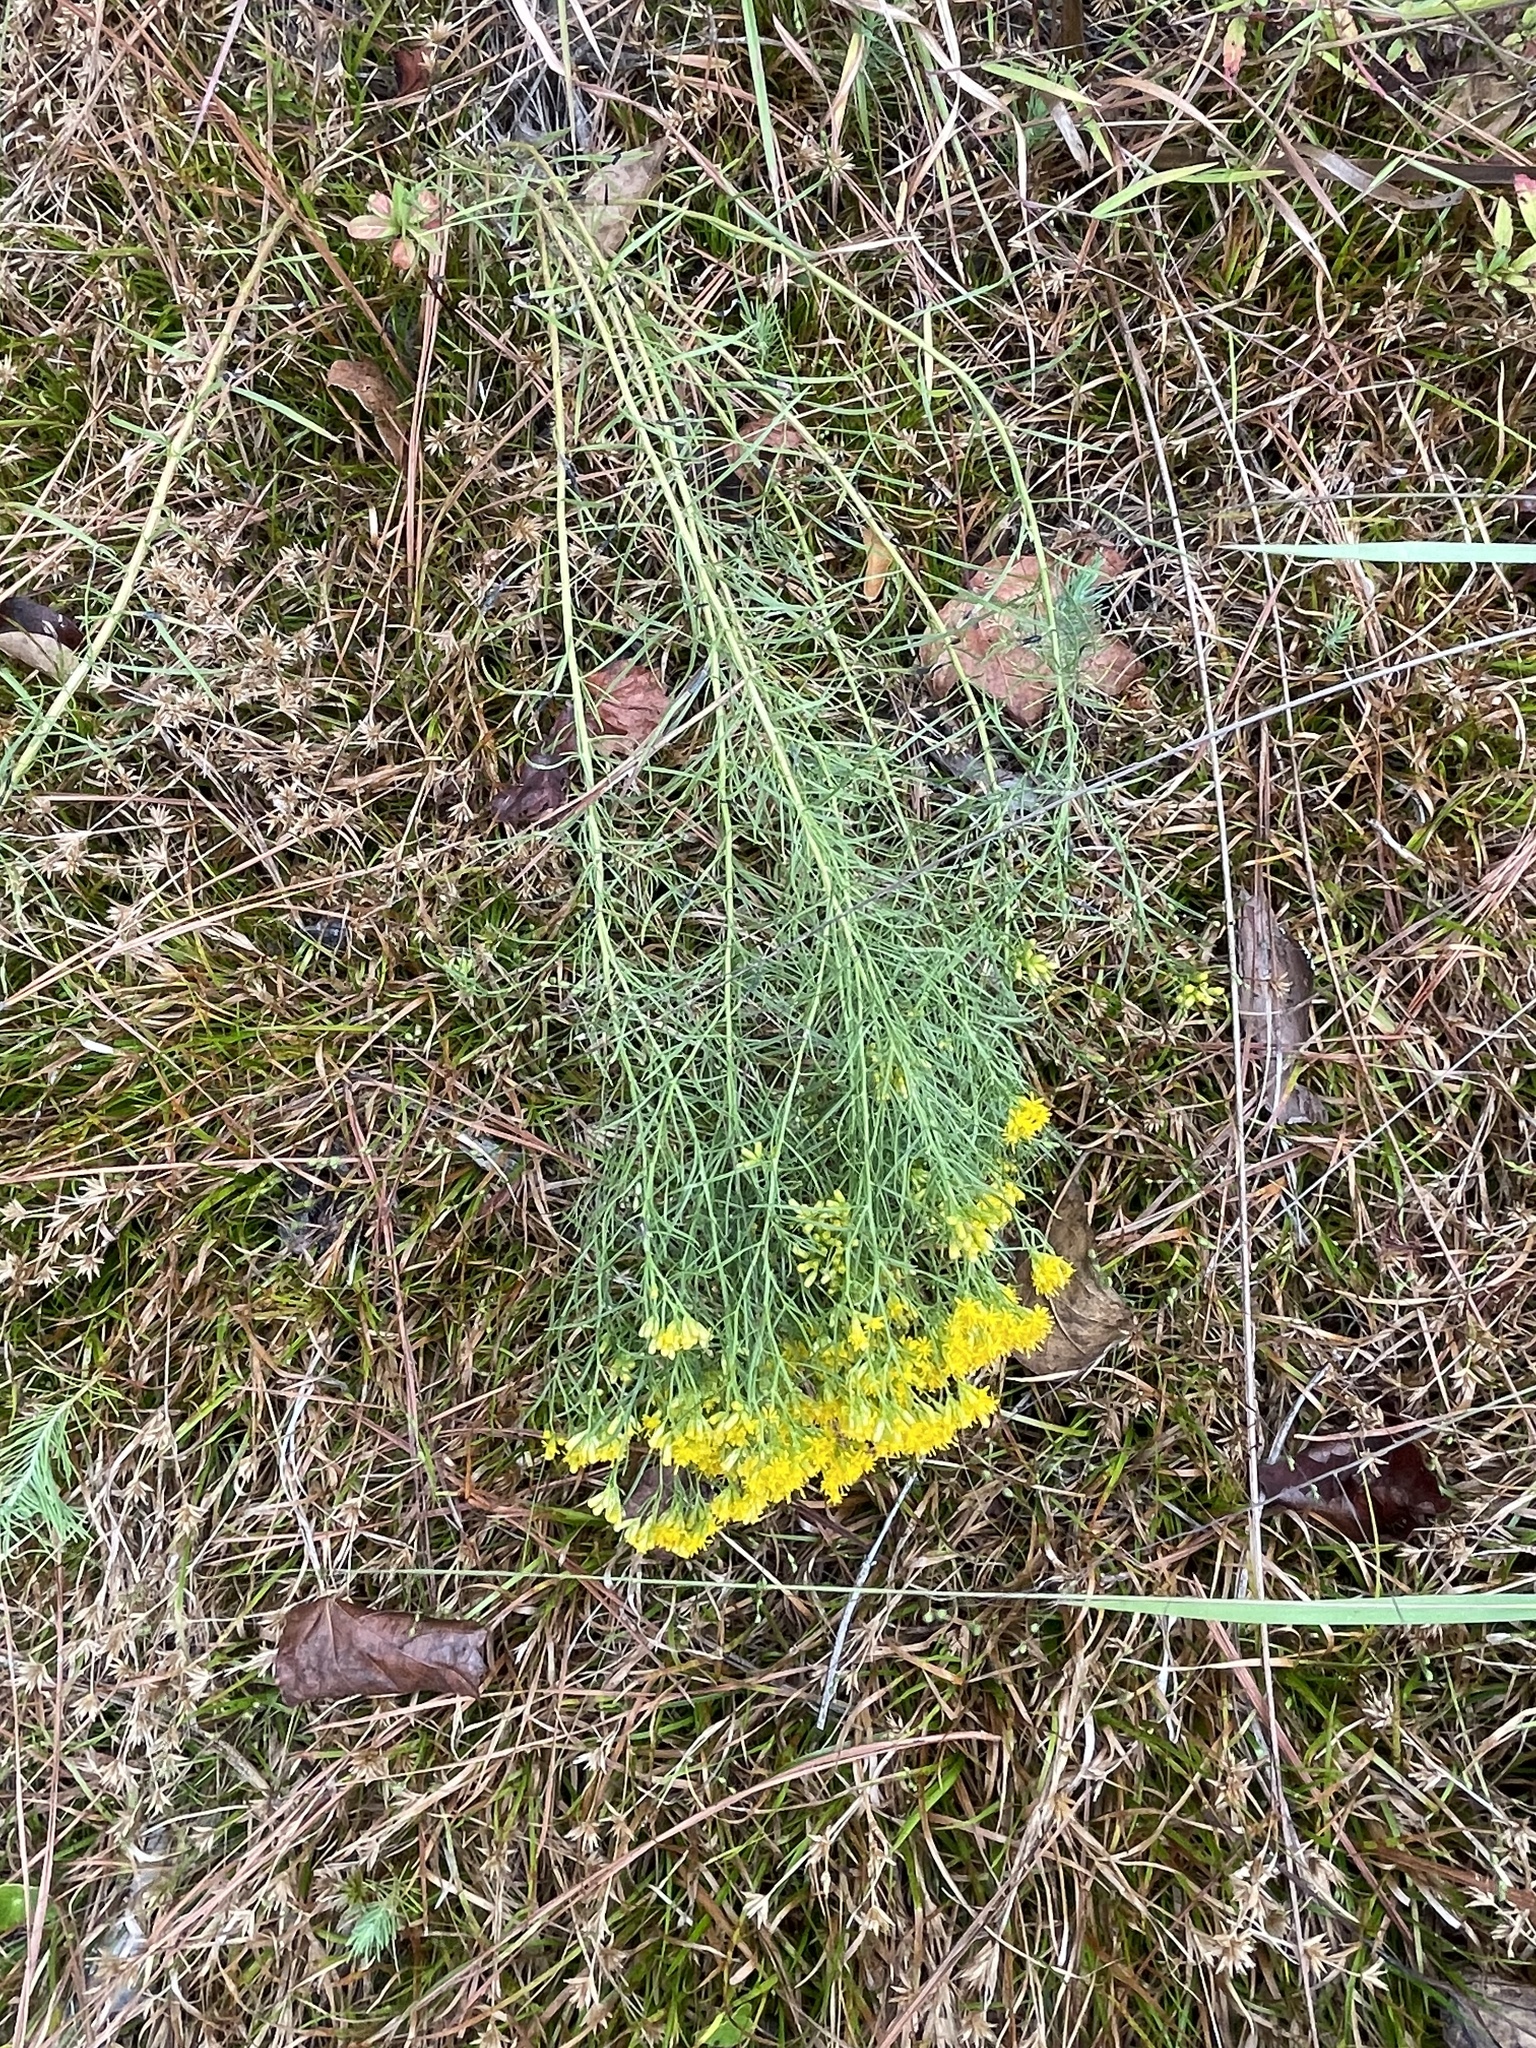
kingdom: Plantae
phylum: Tracheophyta
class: Magnoliopsida
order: Asterales
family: Asteraceae
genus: Euthamia
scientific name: Euthamia caroliniana
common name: Coastal plain goldentop
